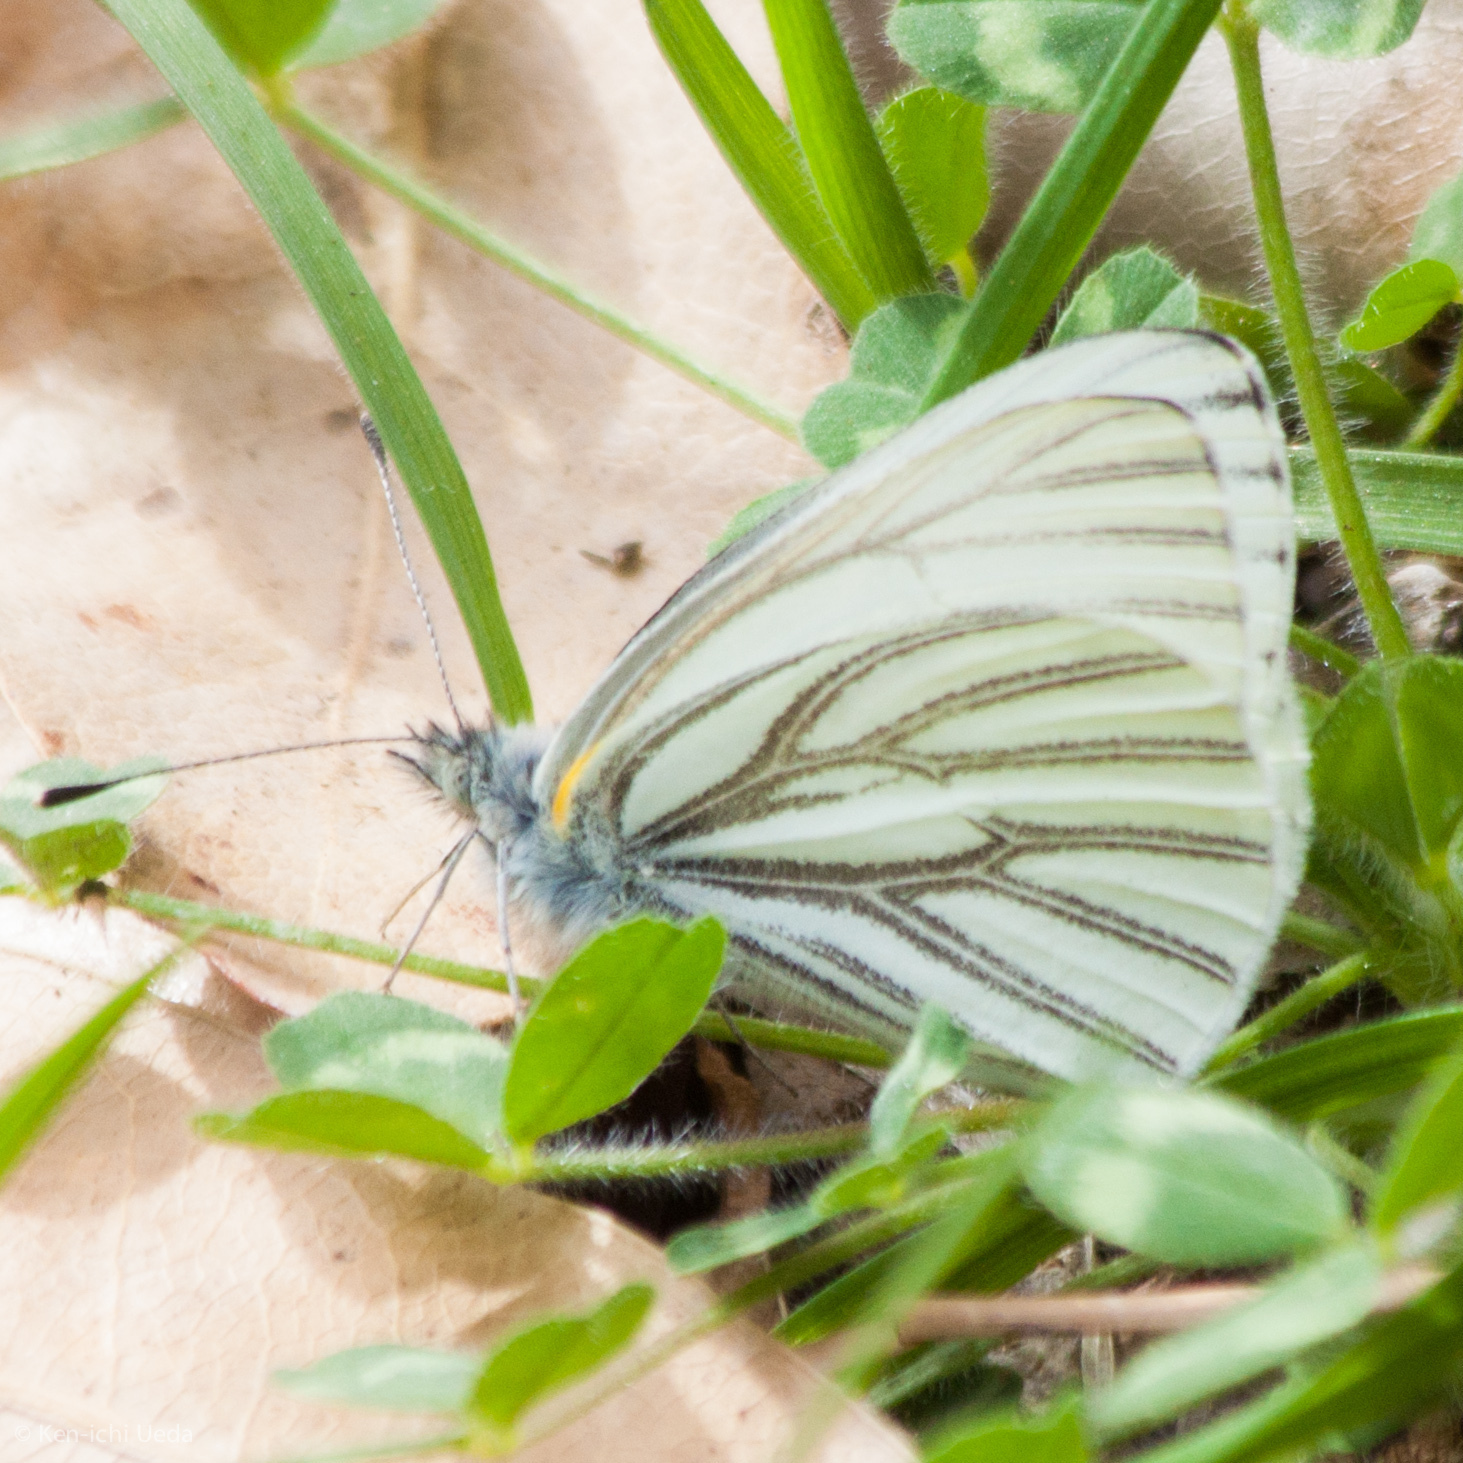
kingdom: Animalia
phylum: Arthropoda
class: Insecta
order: Lepidoptera
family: Pieridae
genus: Pieris
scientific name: Pieris marginalis
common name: Margined white
